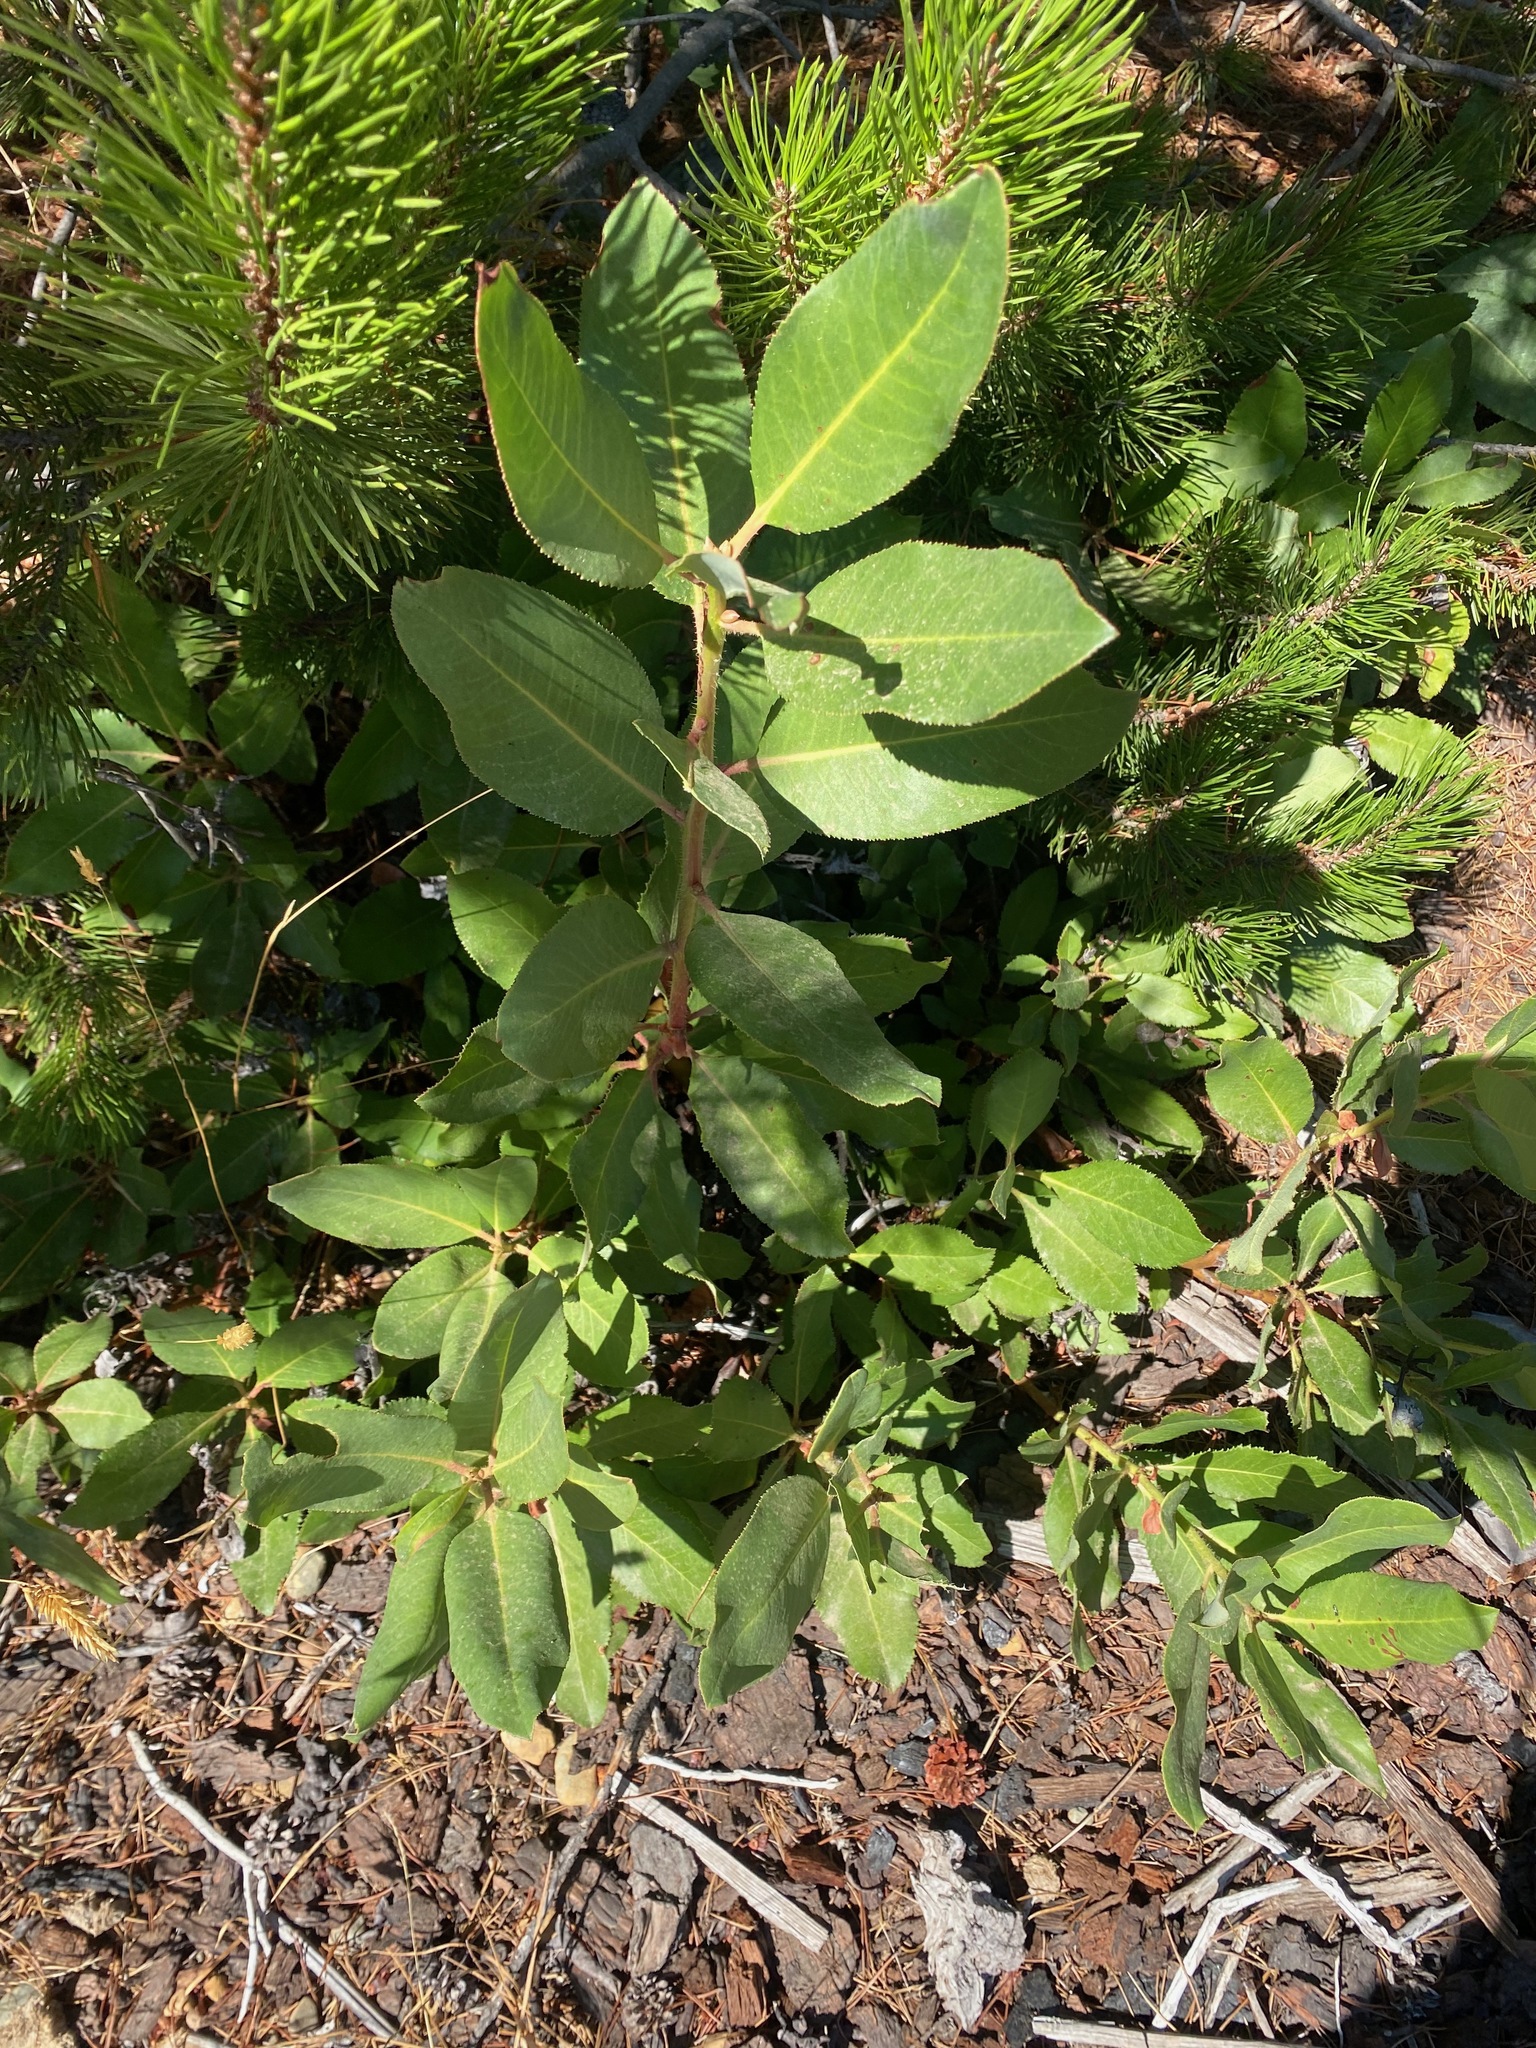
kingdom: Plantae
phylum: Tracheophyta
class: Magnoliopsida
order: Ericales
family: Ericaceae
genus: Arbutus
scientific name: Arbutus menziesii
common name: Pacific madrone
